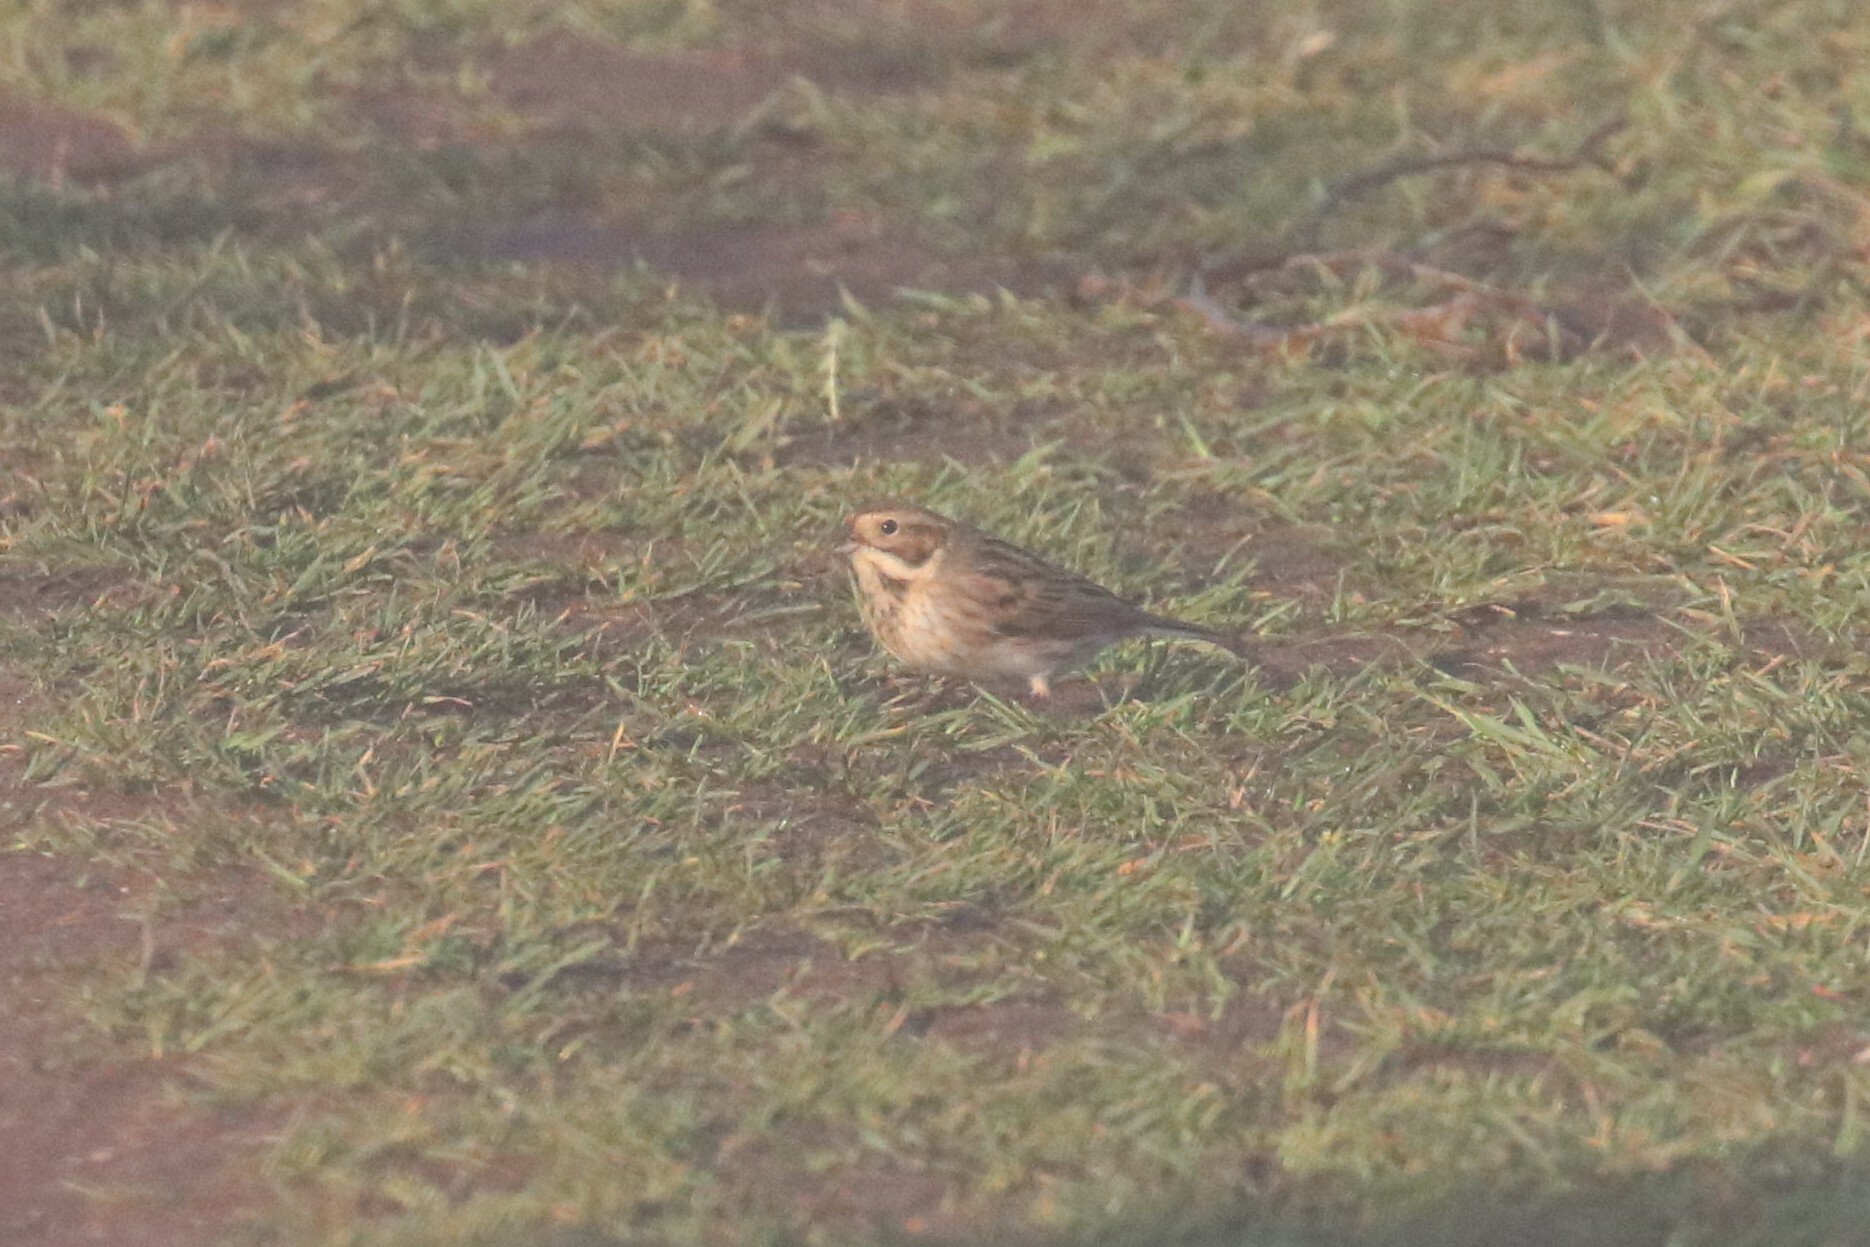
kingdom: Animalia
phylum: Chordata
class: Aves
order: Passeriformes
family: Emberizidae
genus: Emberiza
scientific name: Emberiza schoeniclus
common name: Reed bunting
